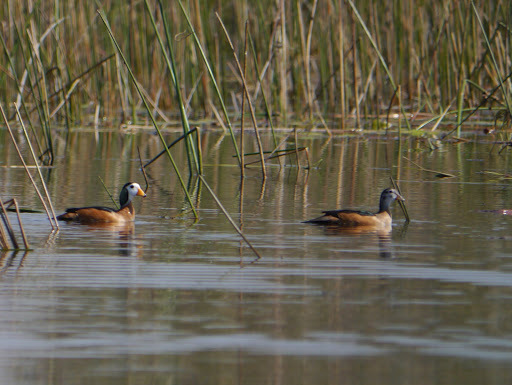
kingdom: Animalia
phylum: Chordata
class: Aves
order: Anseriformes
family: Anatidae
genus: Nettapus
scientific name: Nettapus auritus
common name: African pygmy-goose
